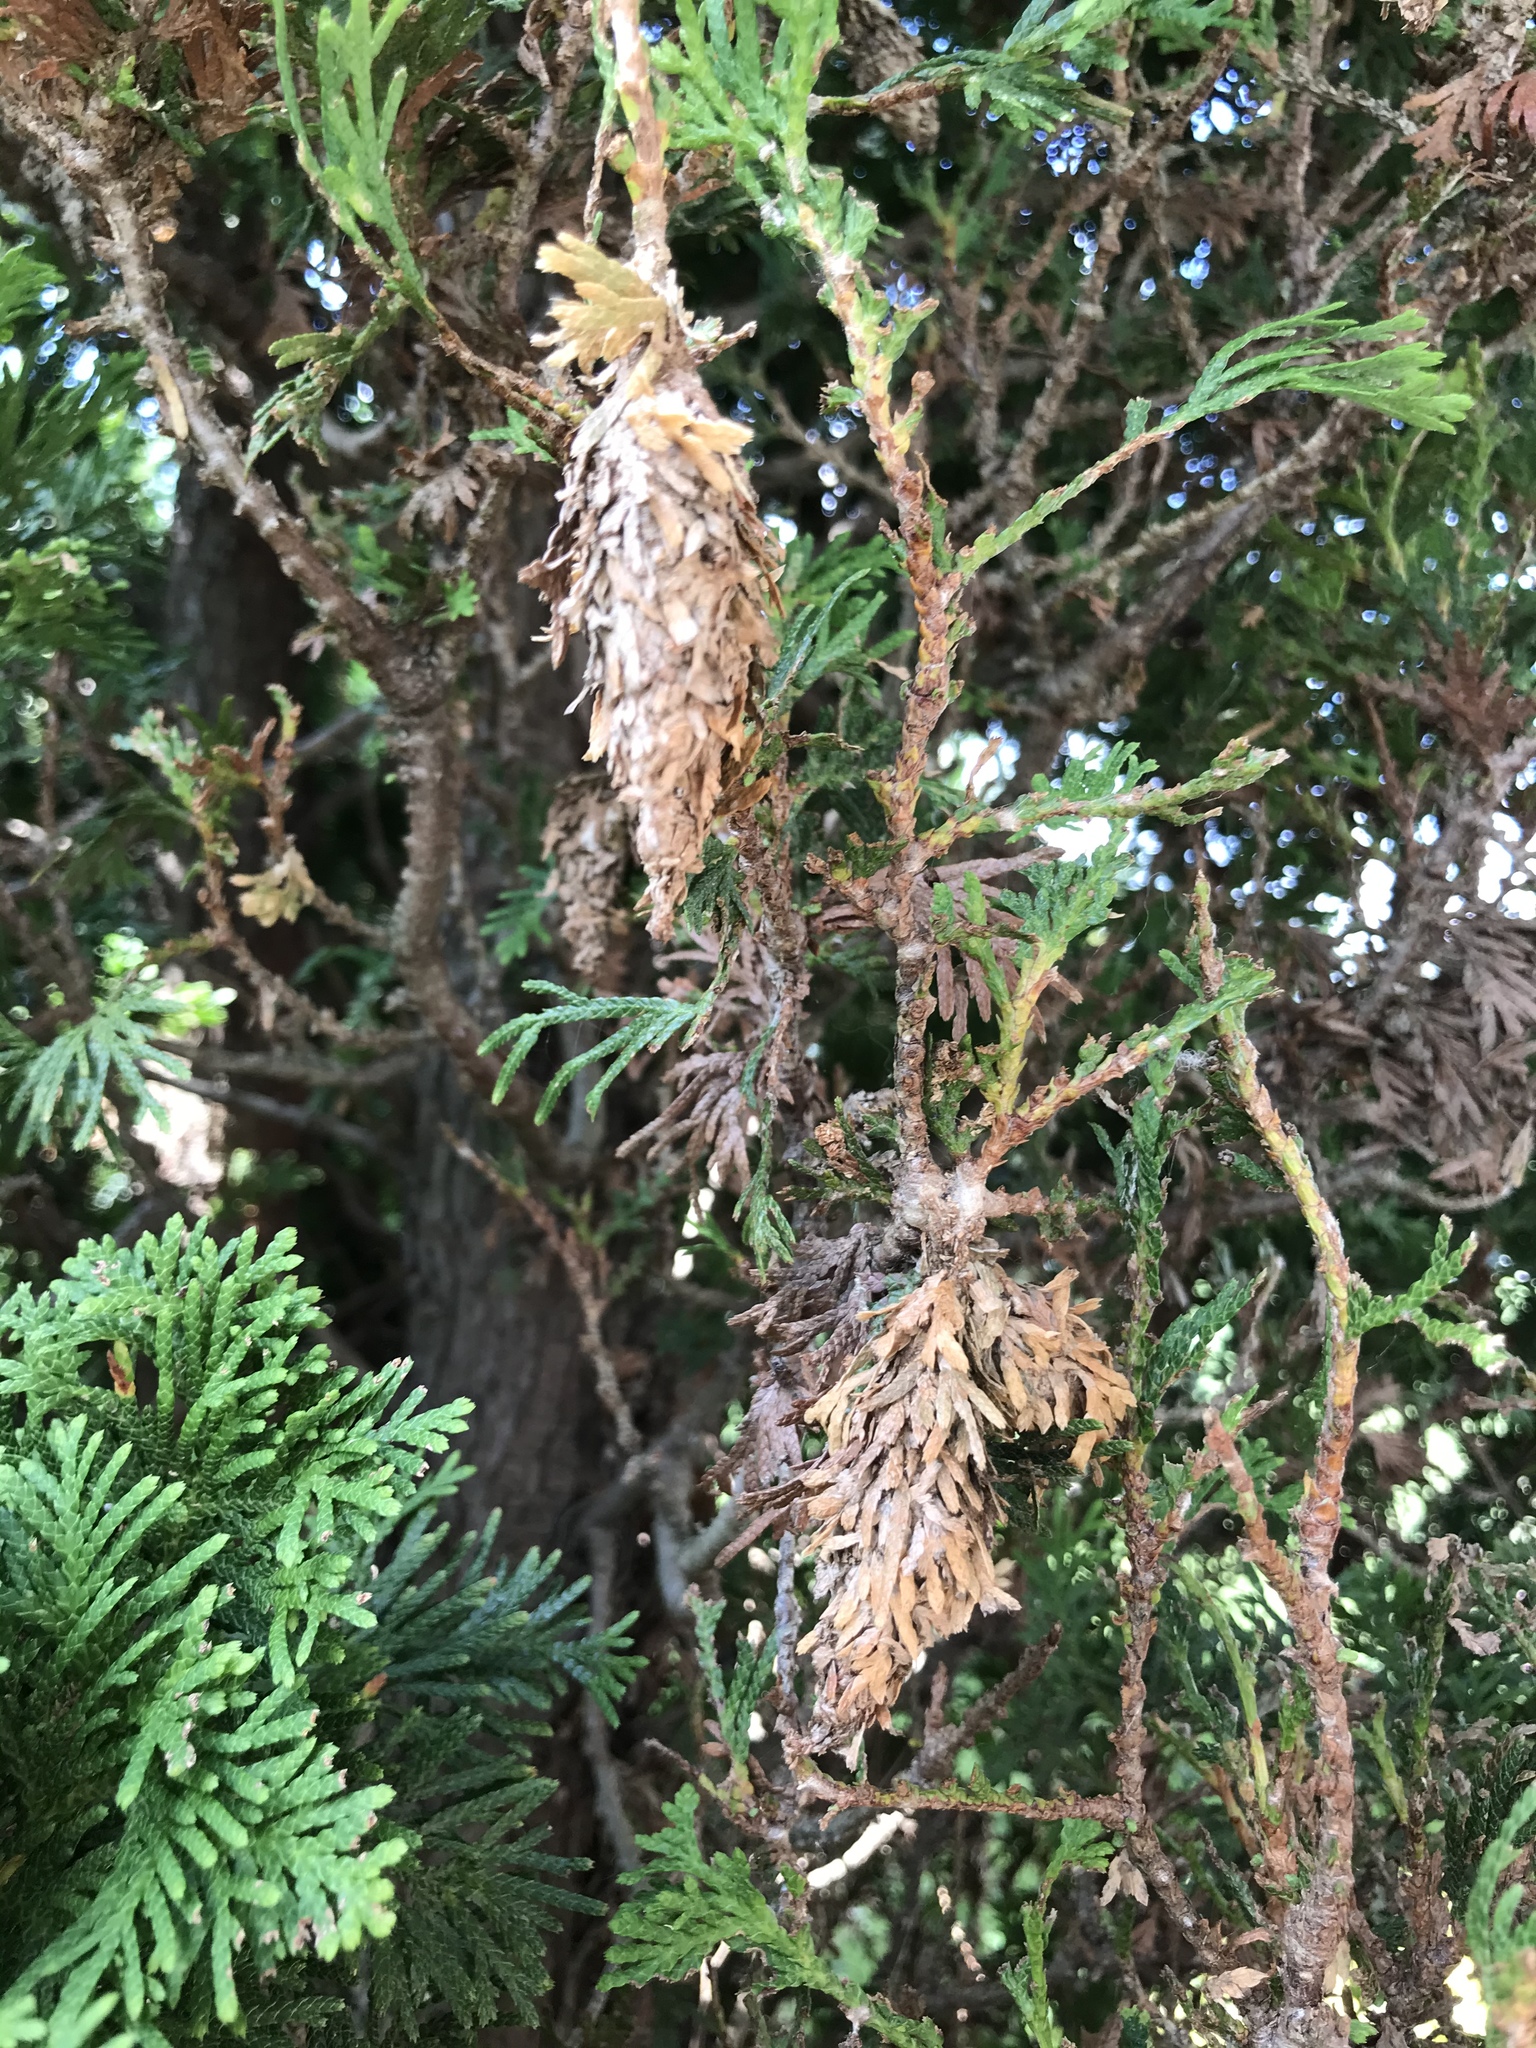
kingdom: Animalia
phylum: Arthropoda
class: Insecta
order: Lepidoptera
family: Psychidae
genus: Thyridopteryx
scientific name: Thyridopteryx ephemeraeformis
